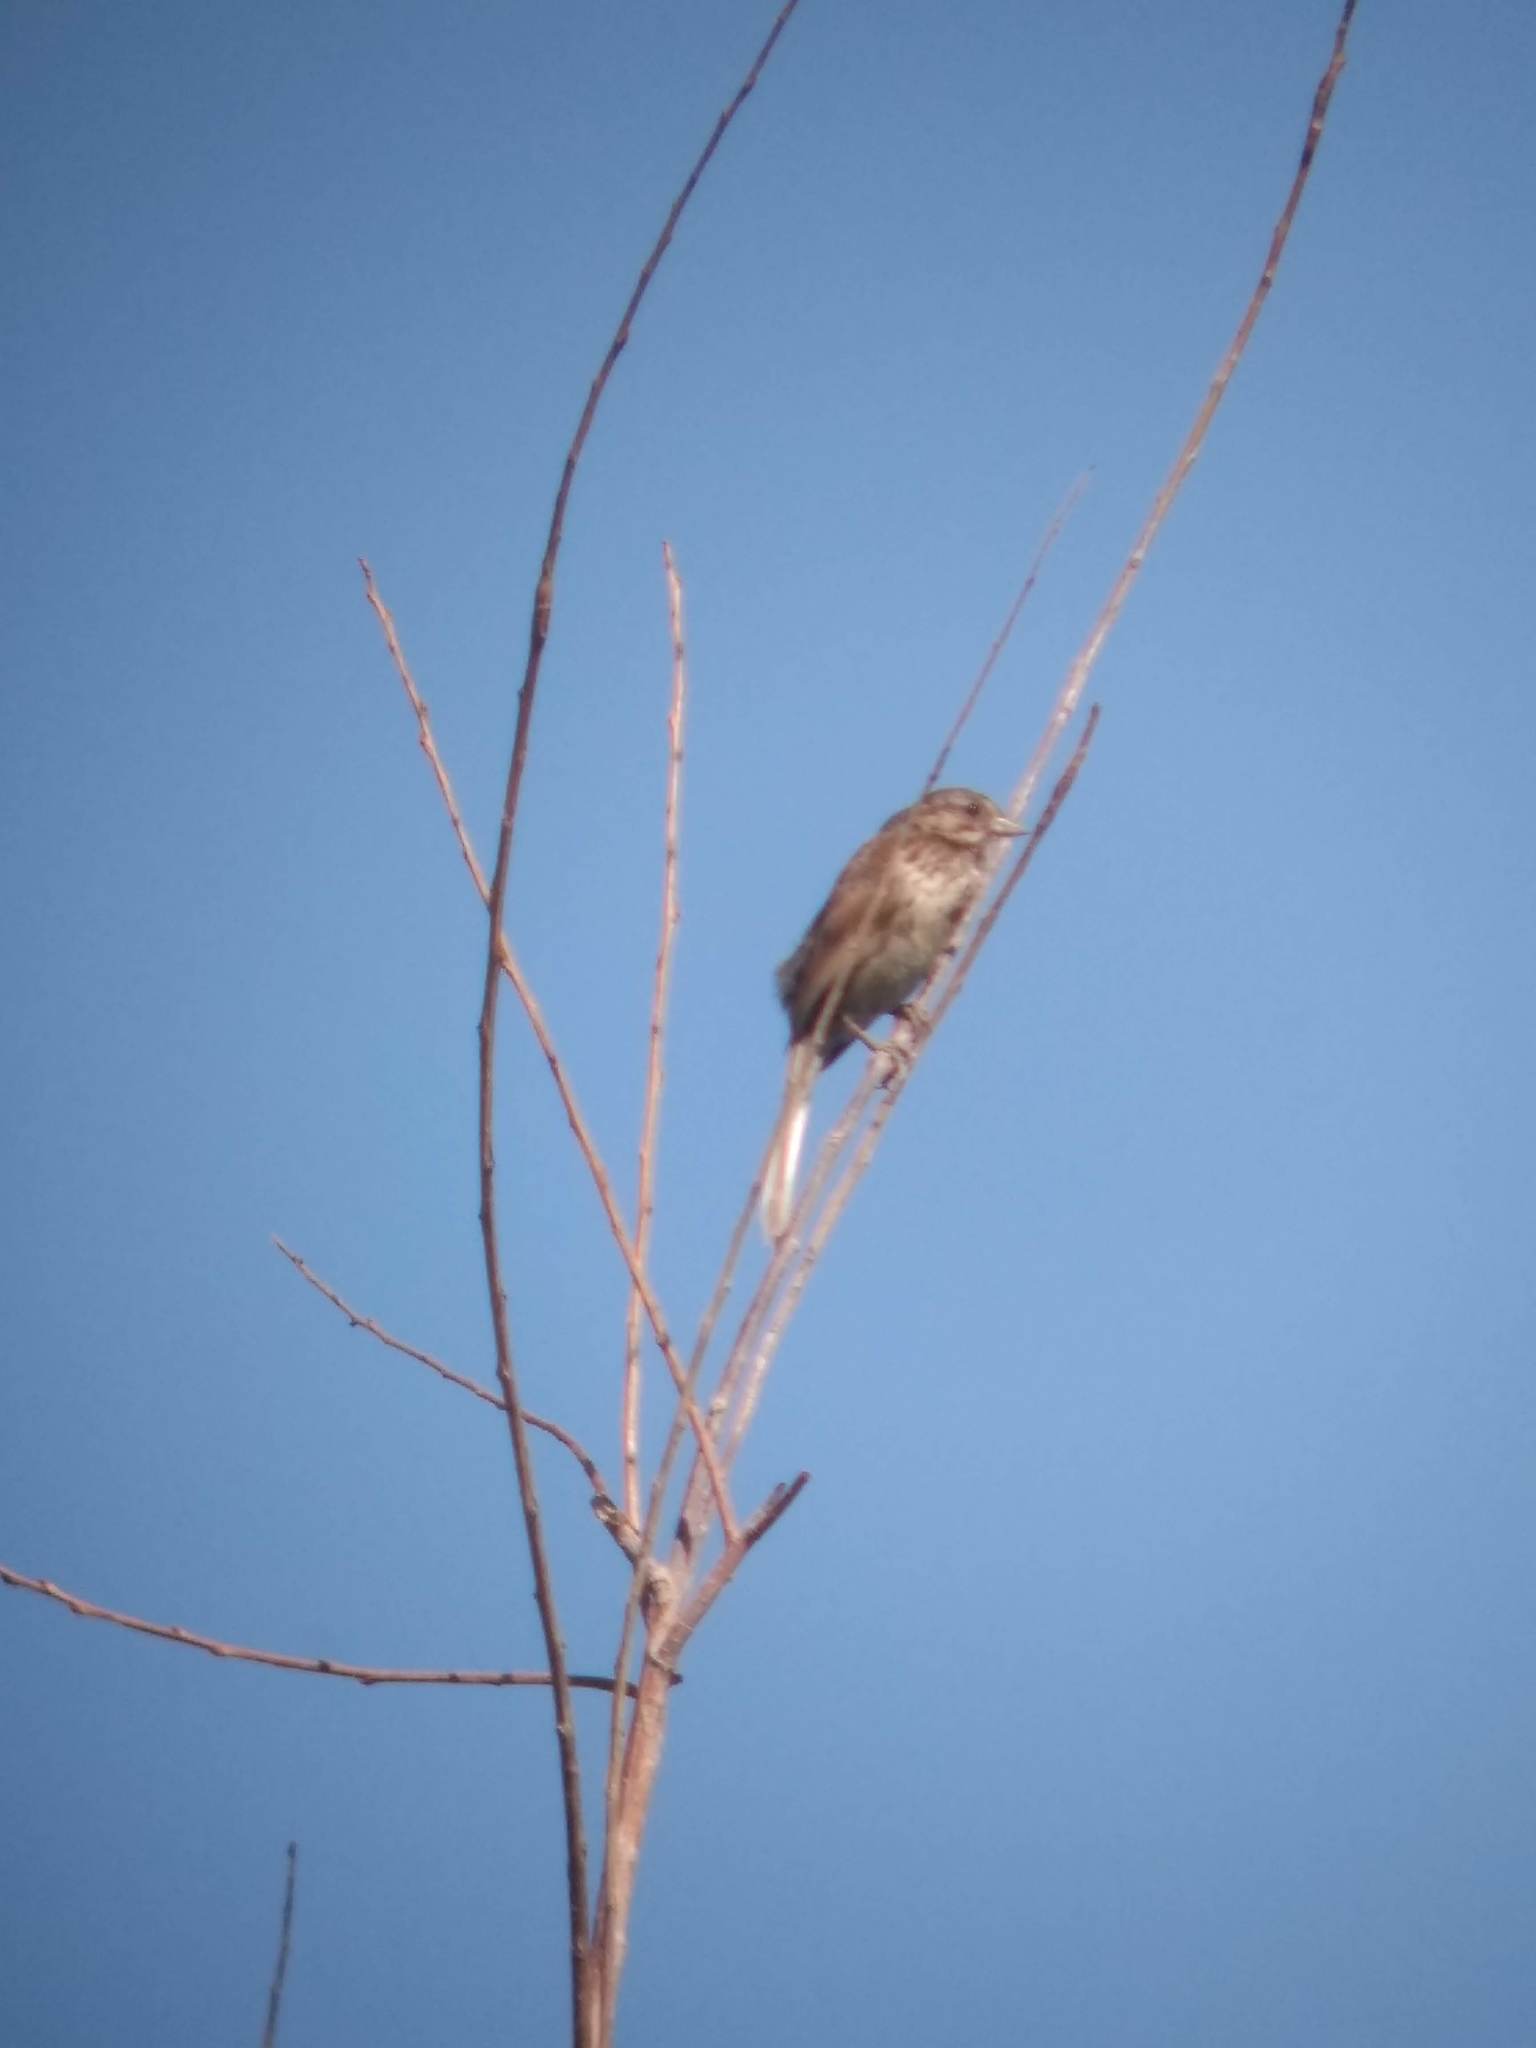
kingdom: Animalia
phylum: Chordata
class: Aves
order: Passeriformes
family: Passerellidae
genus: Melospiza
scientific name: Melospiza melodia
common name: Song sparrow
